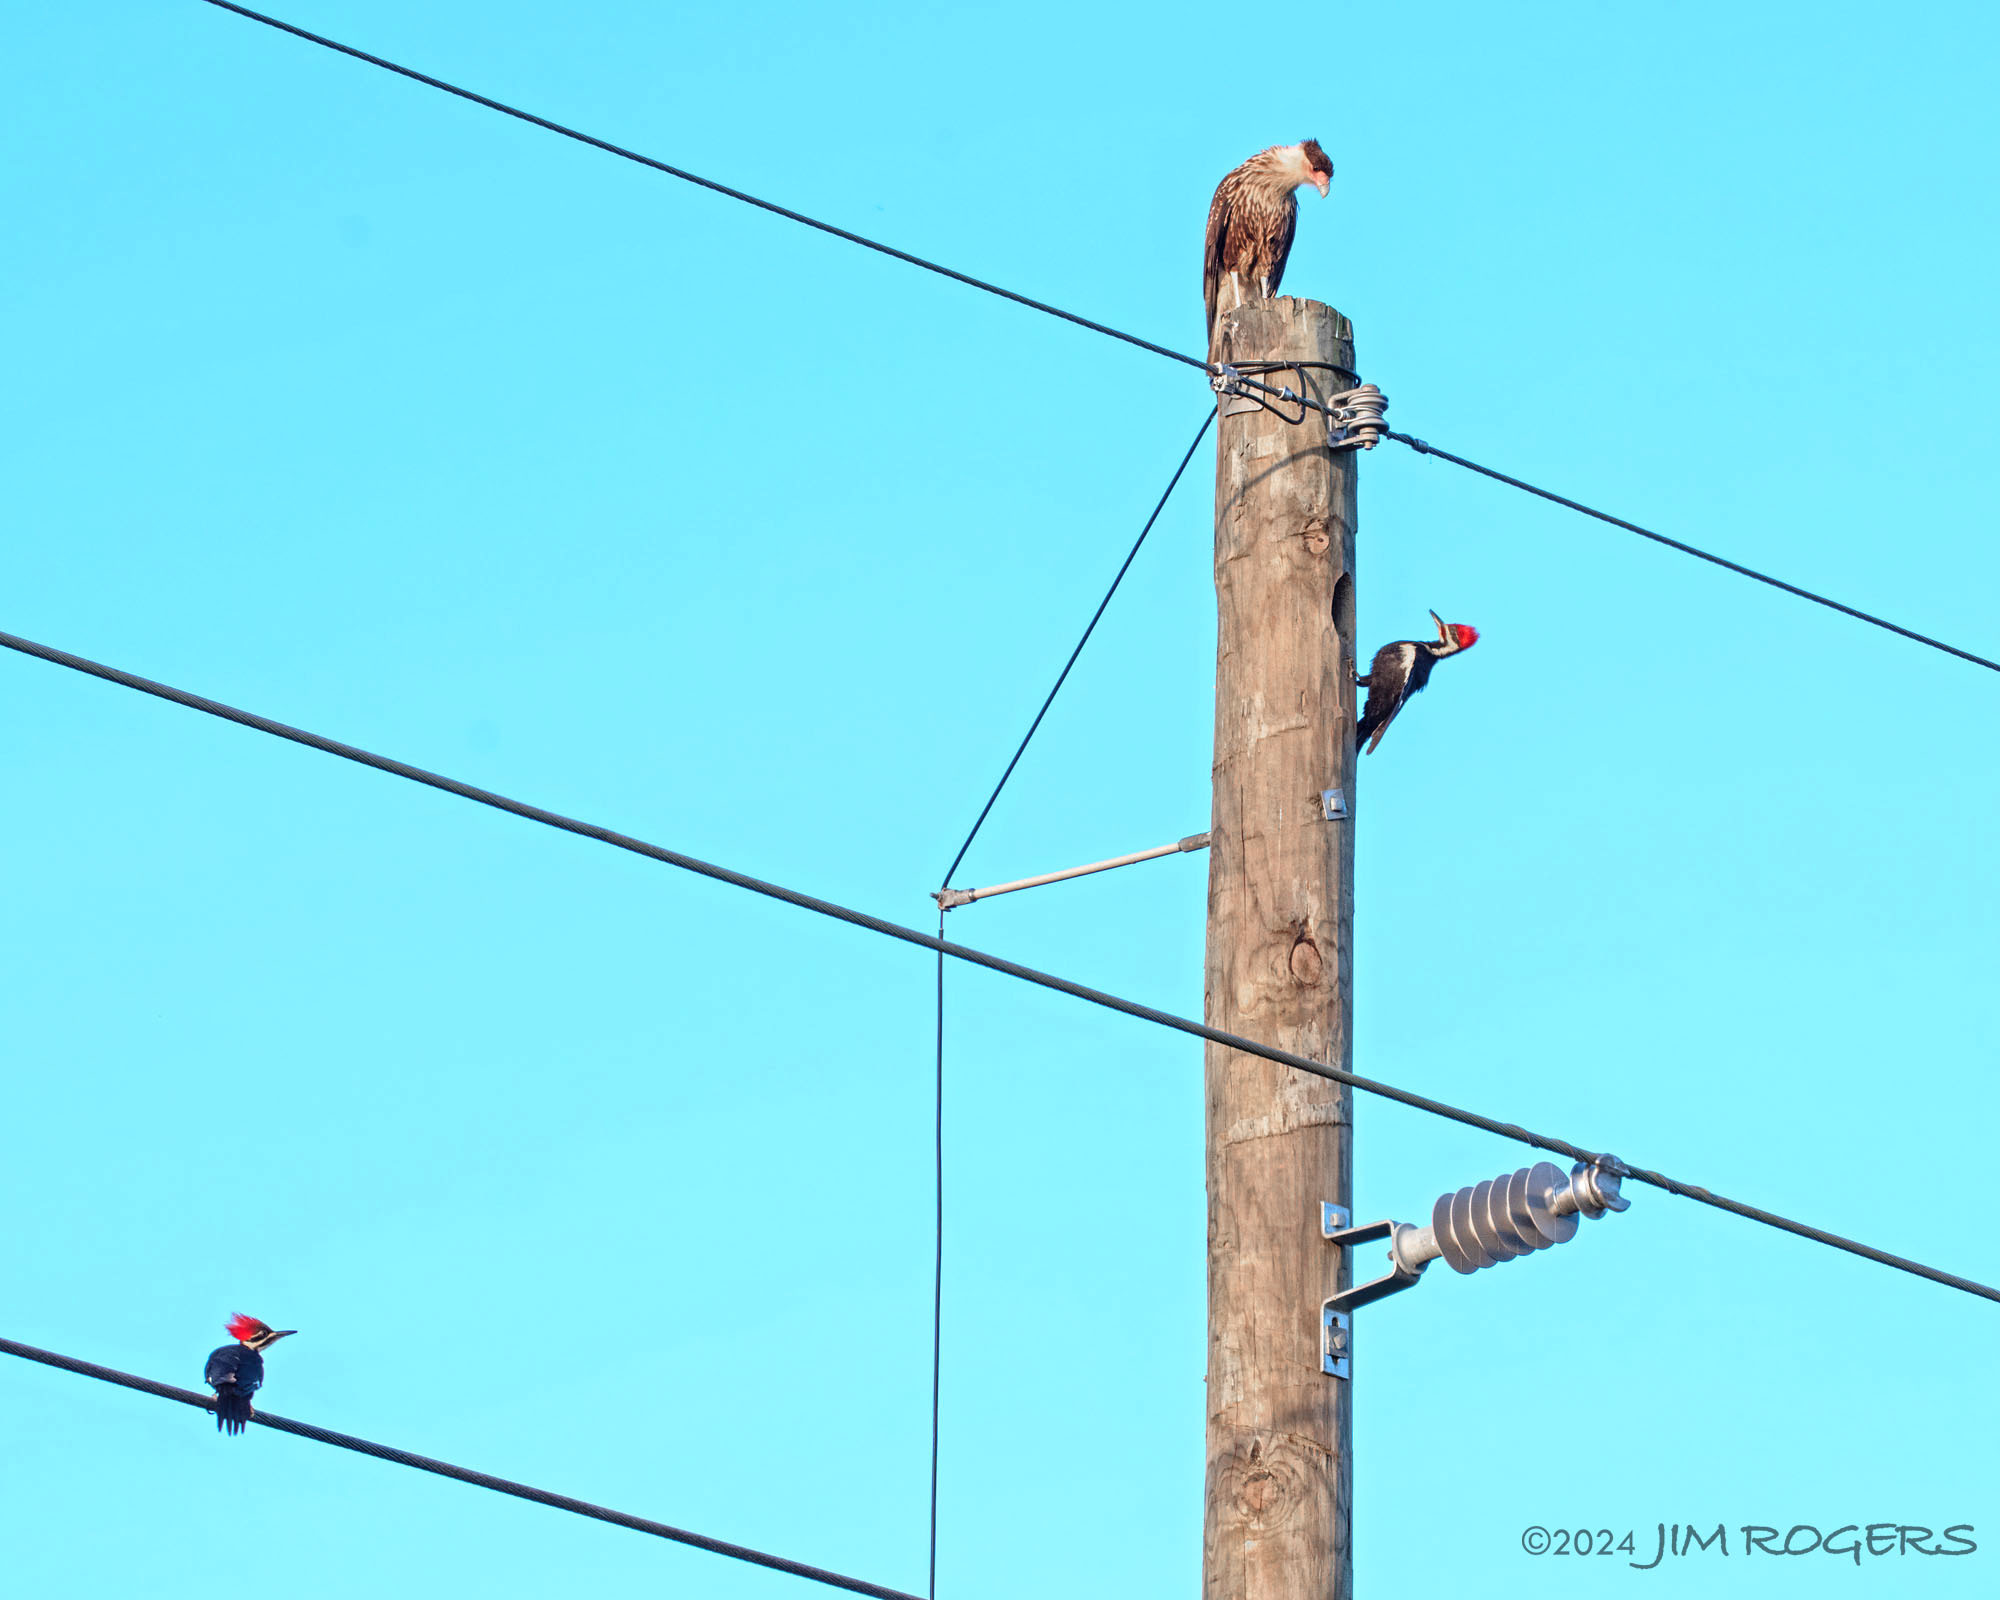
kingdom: Animalia
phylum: Chordata
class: Aves
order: Falconiformes
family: Falconidae
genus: Caracara
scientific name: Caracara plancus
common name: Southern caracara
